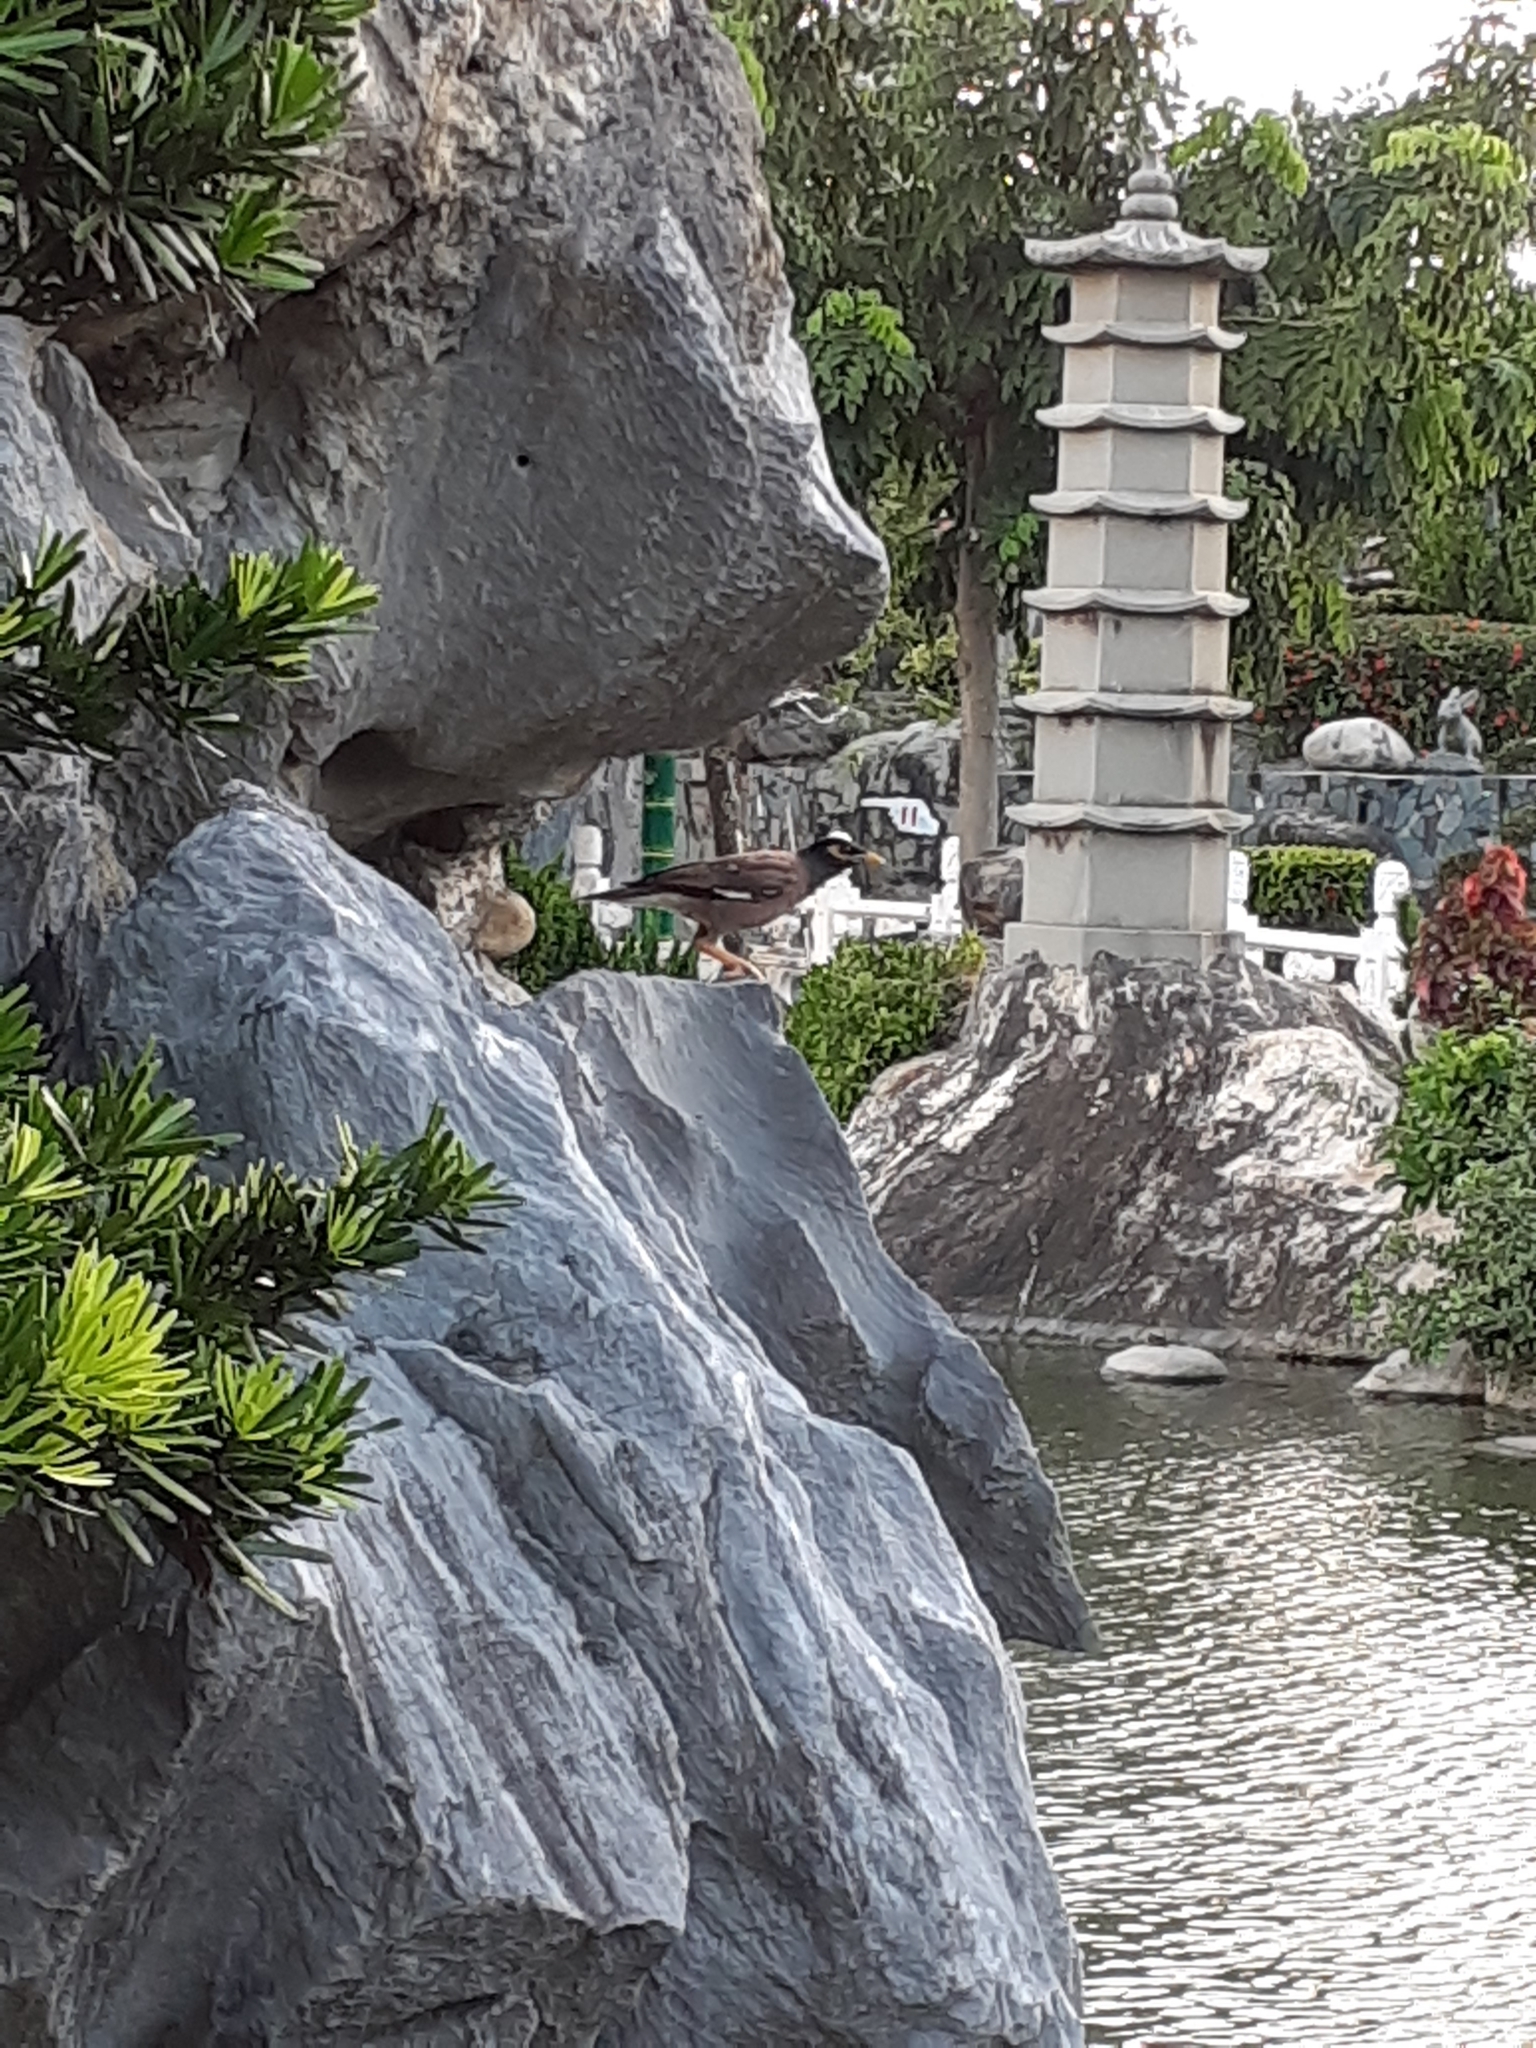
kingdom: Animalia
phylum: Chordata
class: Aves
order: Passeriformes
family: Sturnidae
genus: Acridotheres
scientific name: Acridotheres tristis
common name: Common myna
